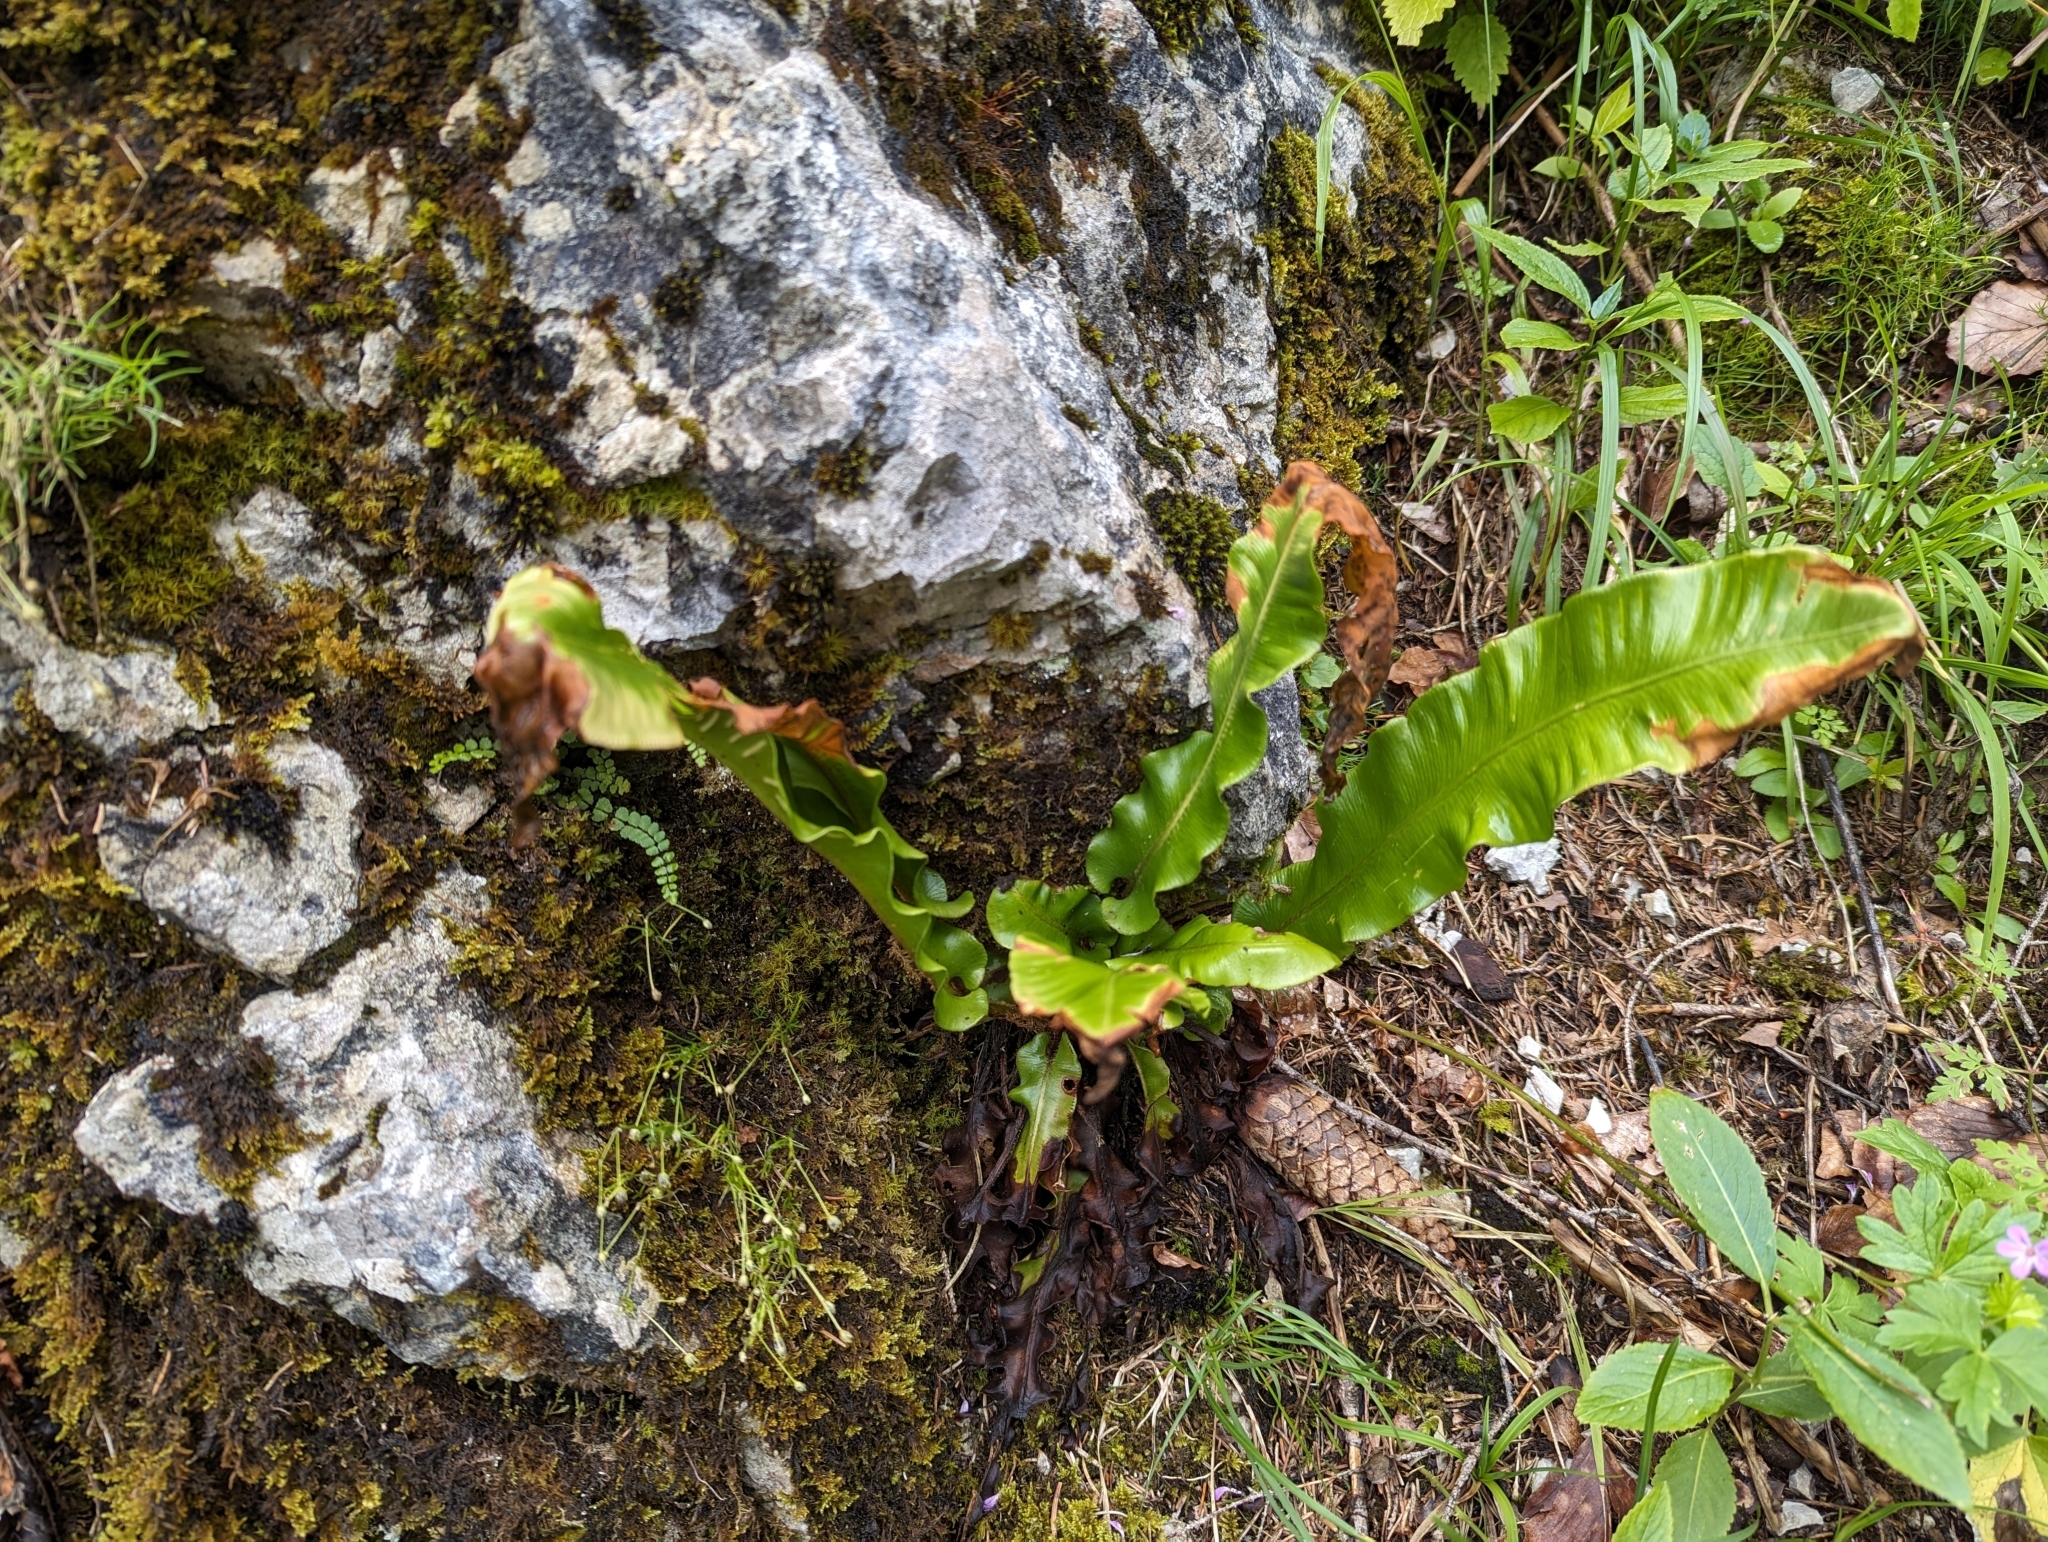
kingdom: Plantae
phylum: Tracheophyta
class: Polypodiopsida
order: Polypodiales
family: Aspleniaceae
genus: Asplenium
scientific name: Asplenium scolopendrium
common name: Hart's-tongue fern
